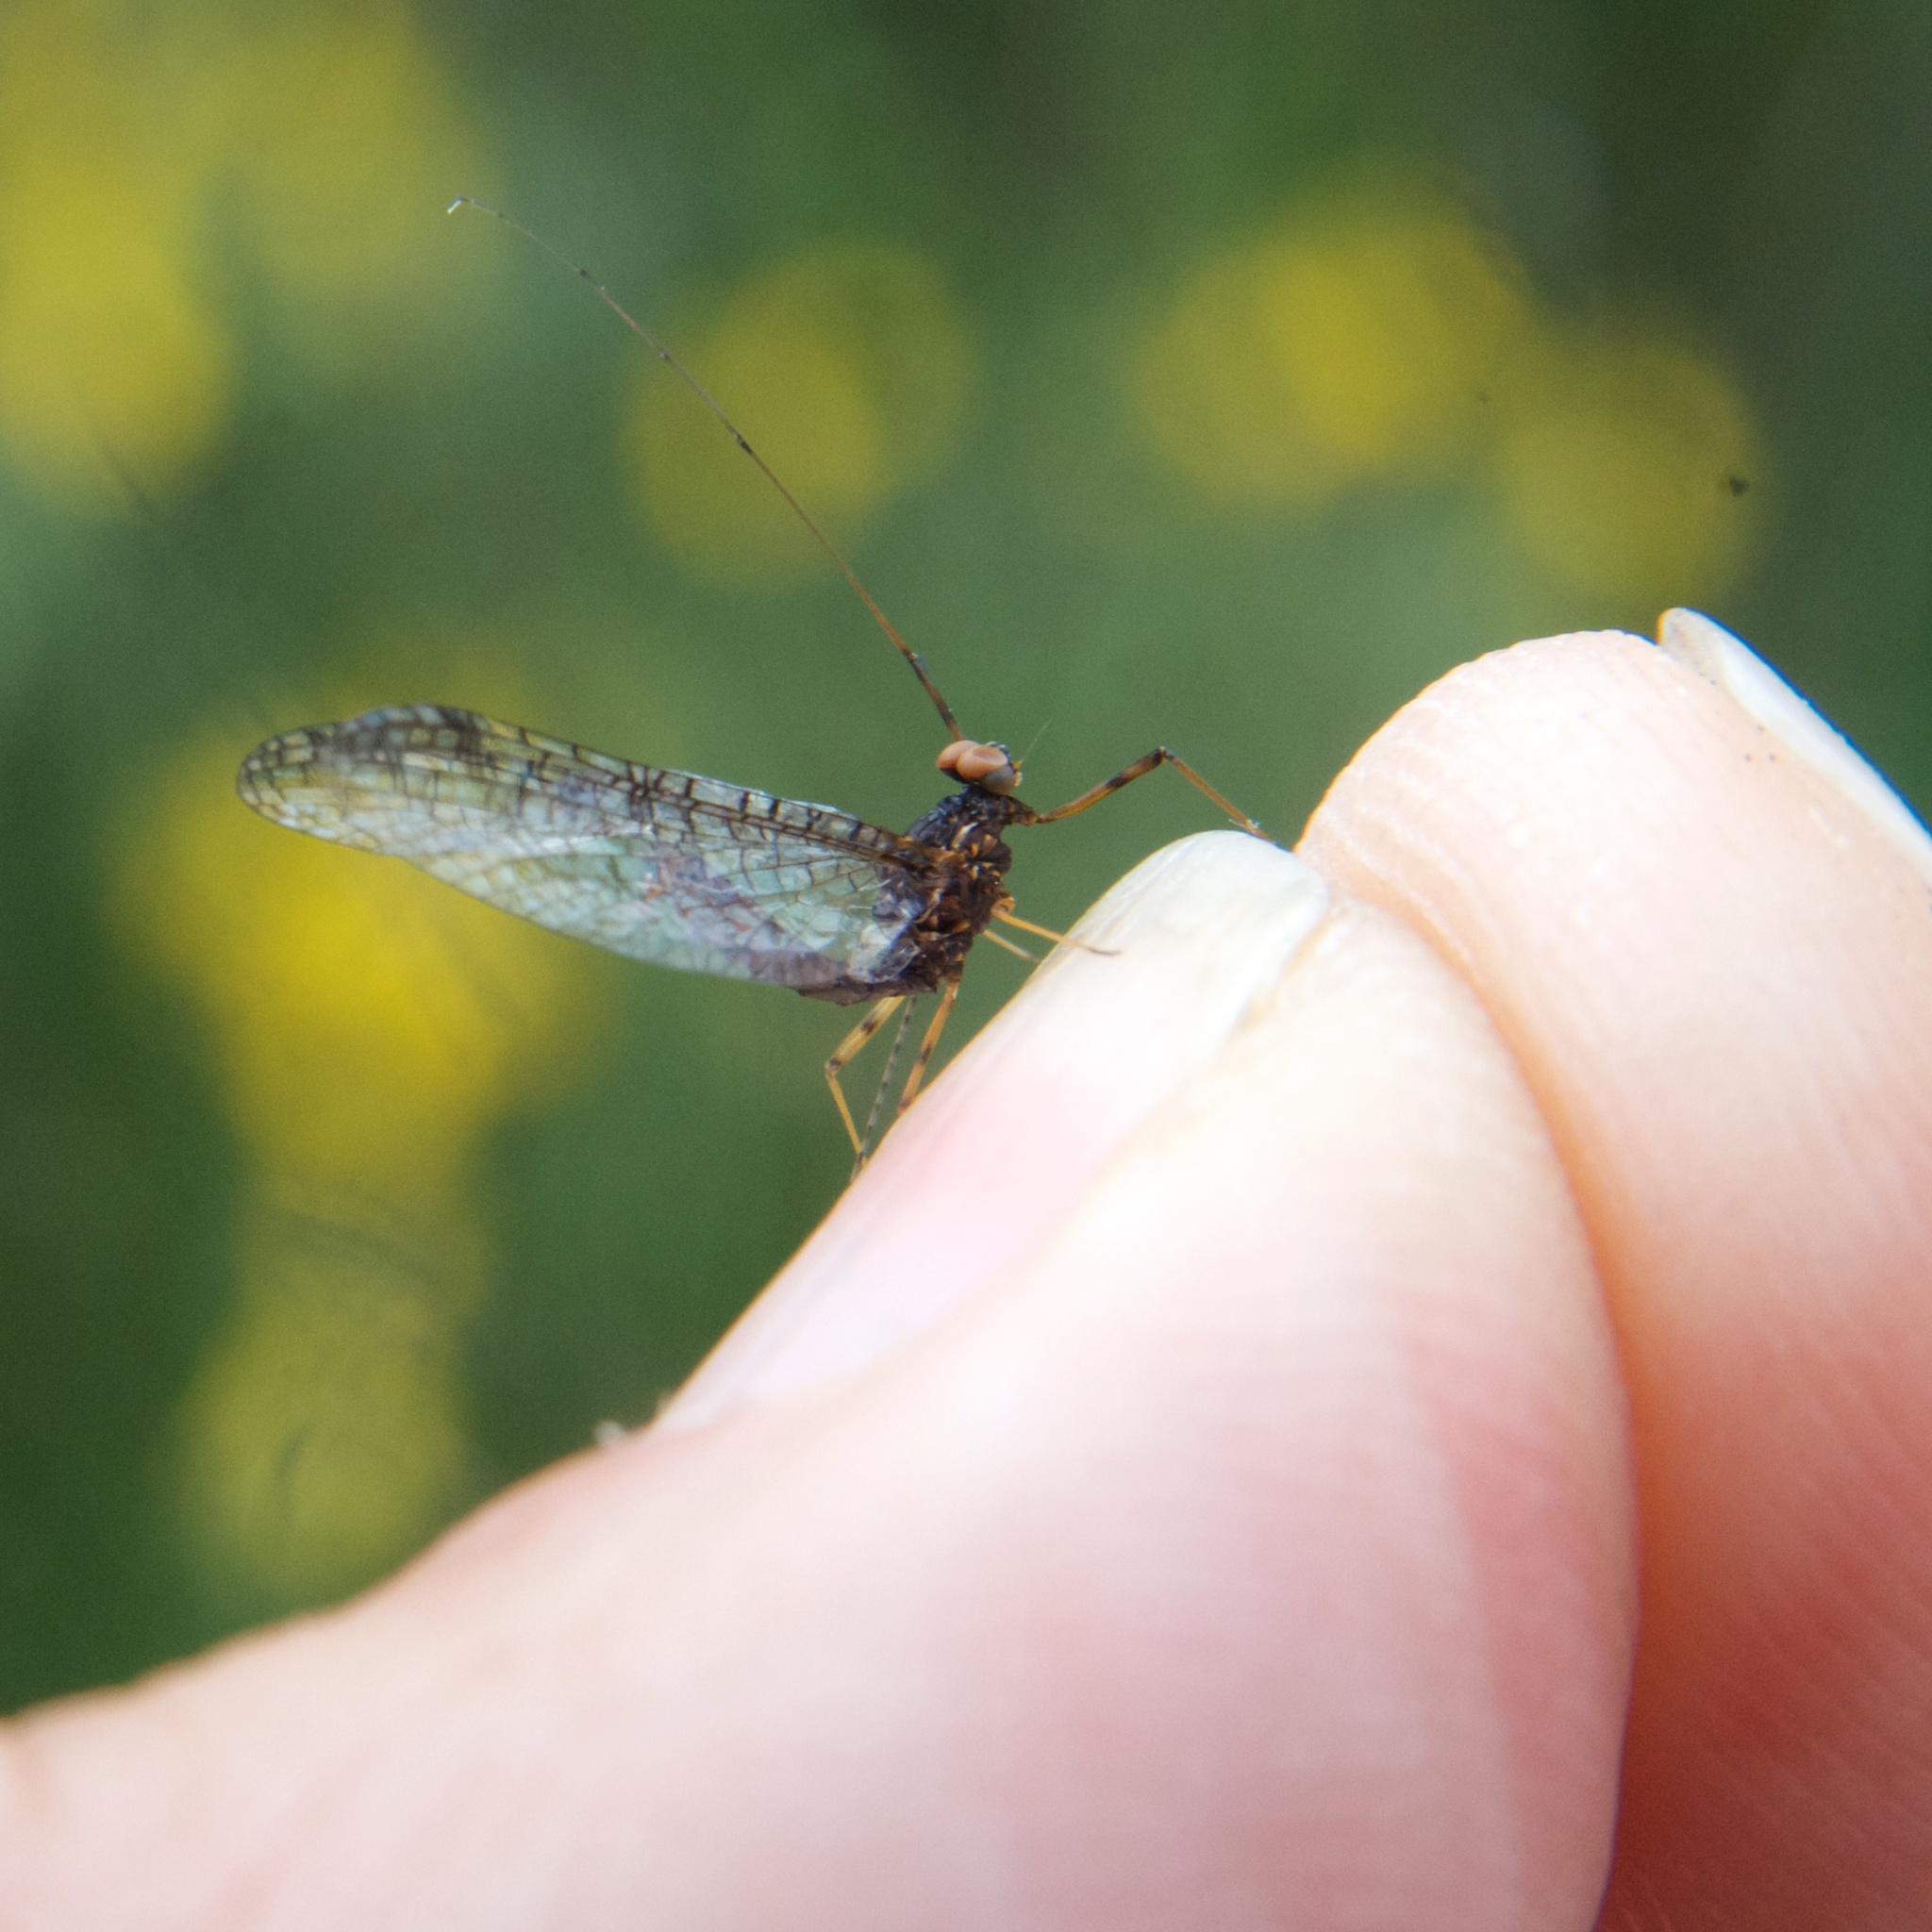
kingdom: Animalia
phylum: Arthropoda
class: Insecta
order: Ephemeroptera
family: Leptophlebiidae
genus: Zephlebia
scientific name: Zephlebia spectabilis
